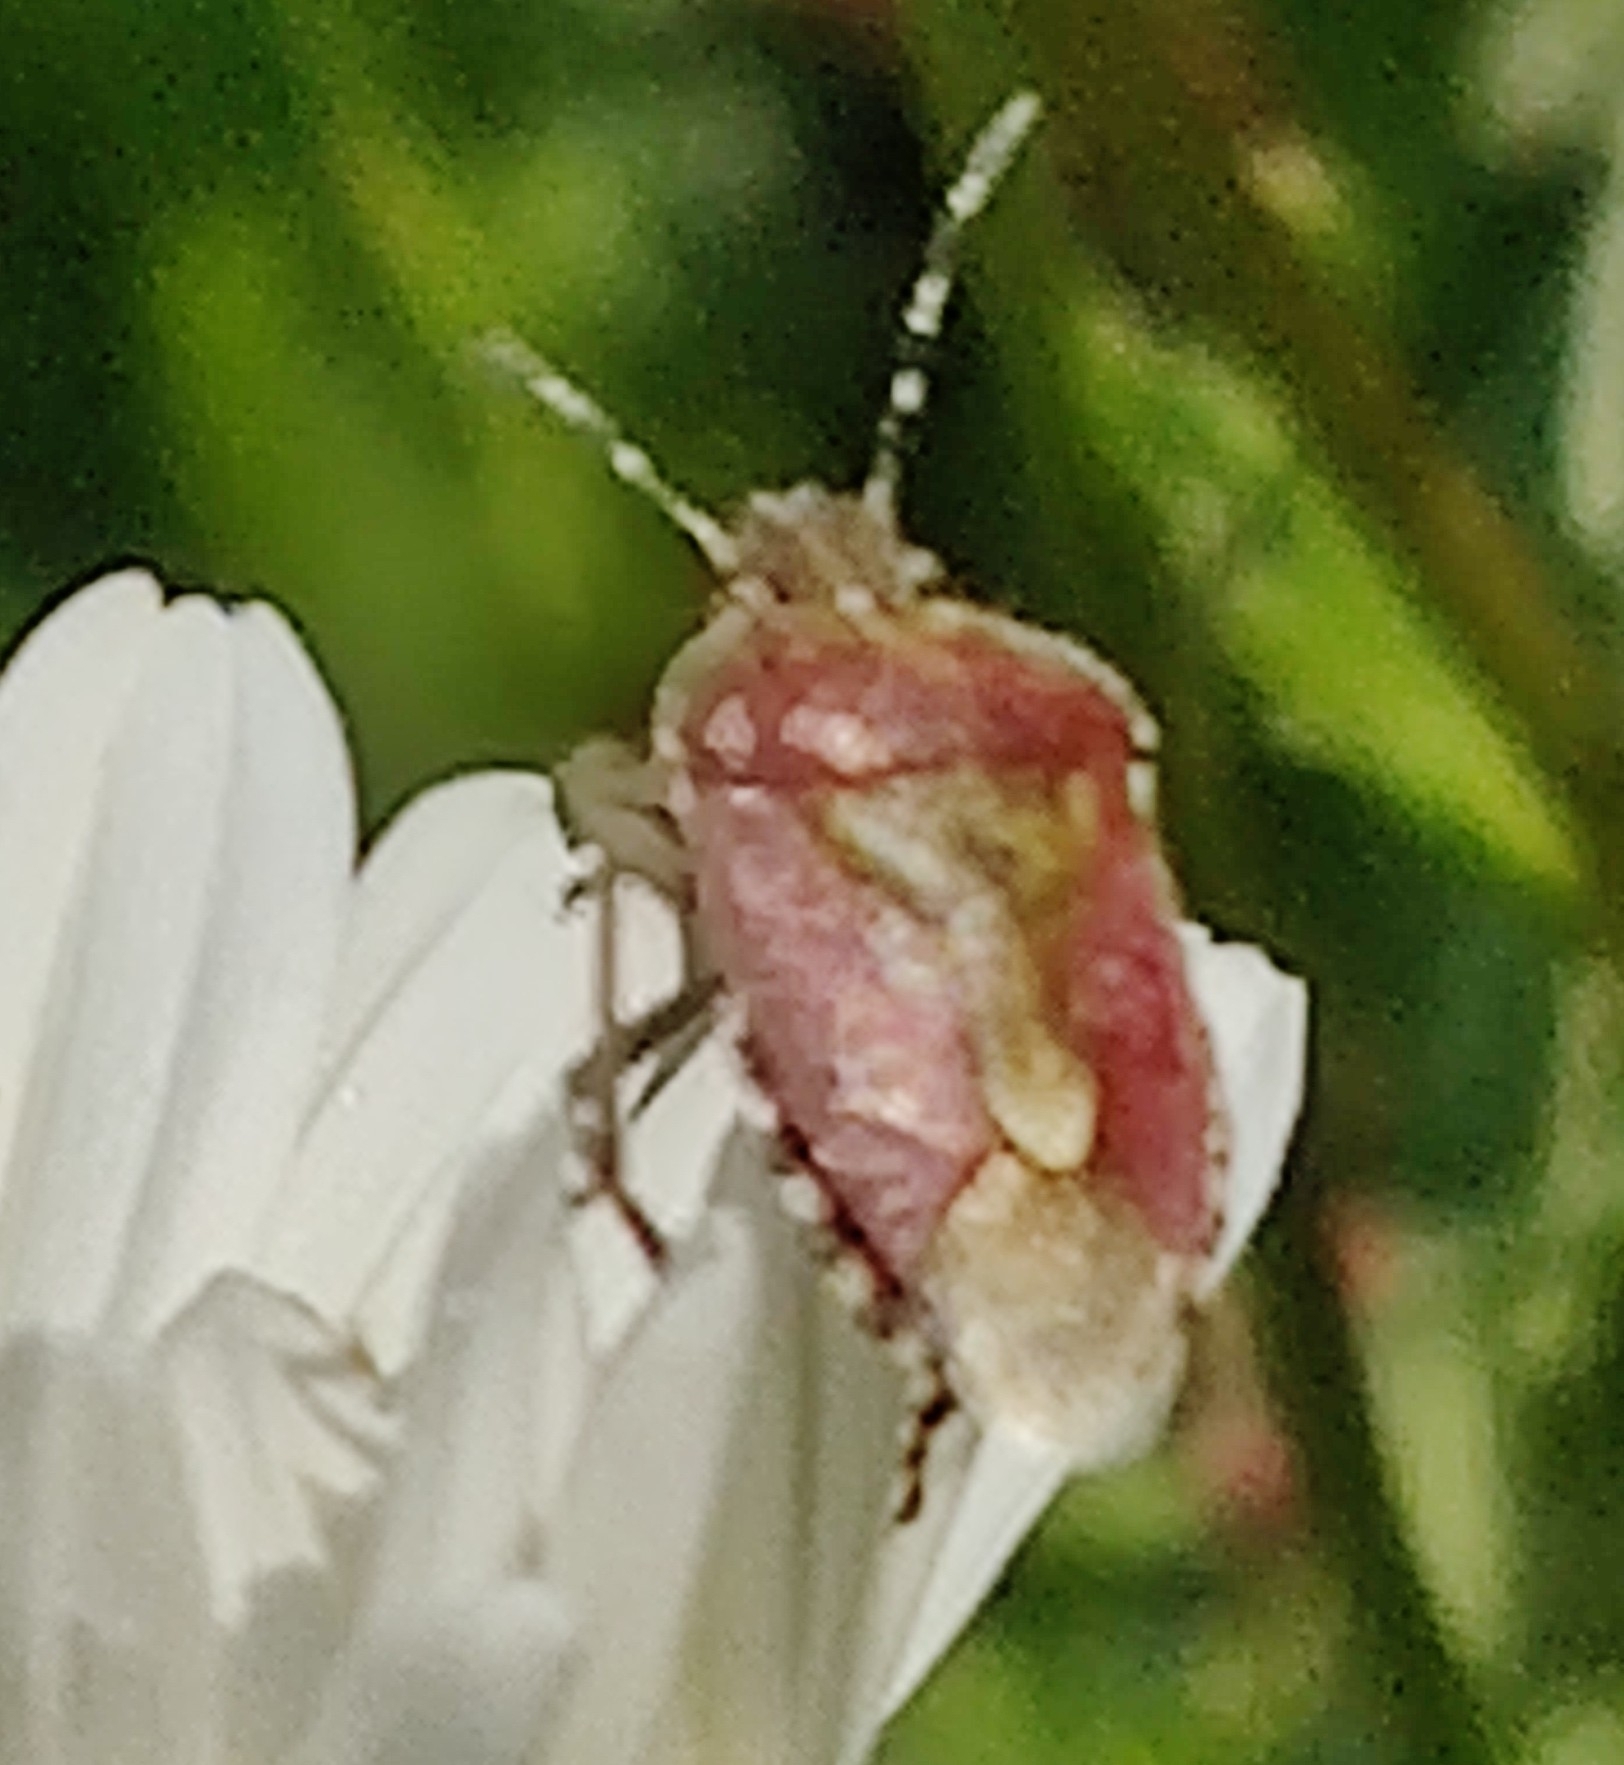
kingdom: Animalia
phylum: Arthropoda
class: Insecta
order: Hemiptera
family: Pentatomidae
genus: Dolycoris
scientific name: Dolycoris baccarum
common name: Sloe bug
